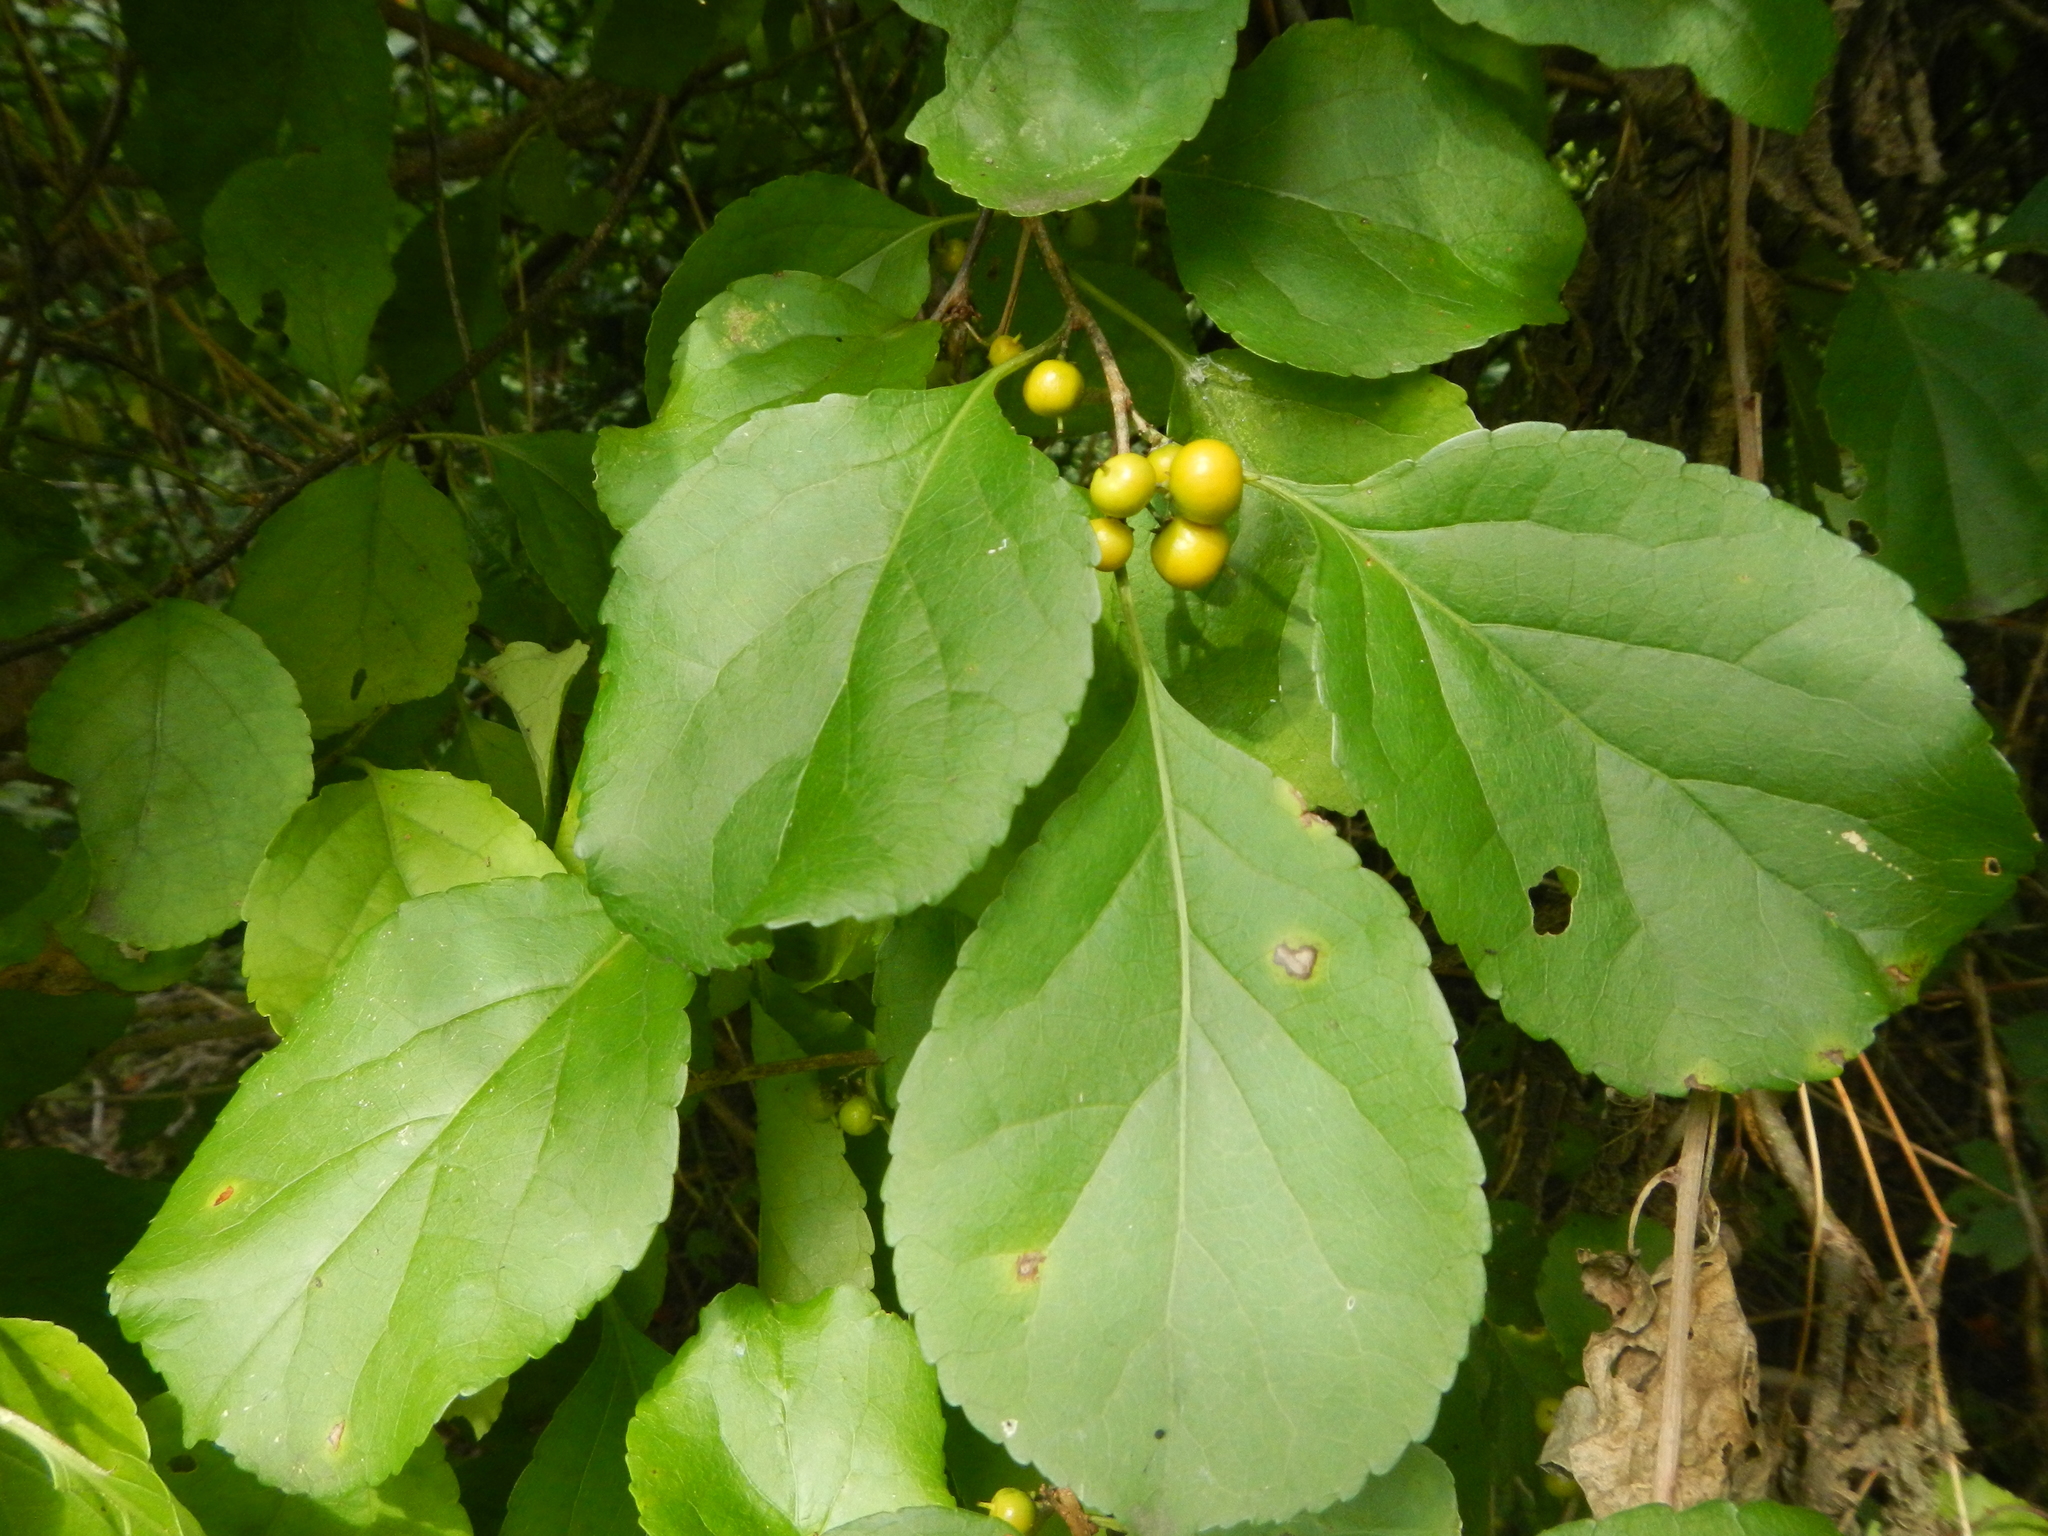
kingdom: Plantae
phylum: Tracheophyta
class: Magnoliopsida
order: Celastrales
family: Celastraceae
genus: Celastrus
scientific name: Celastrus orbiculatus
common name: Oriental bittersweet
